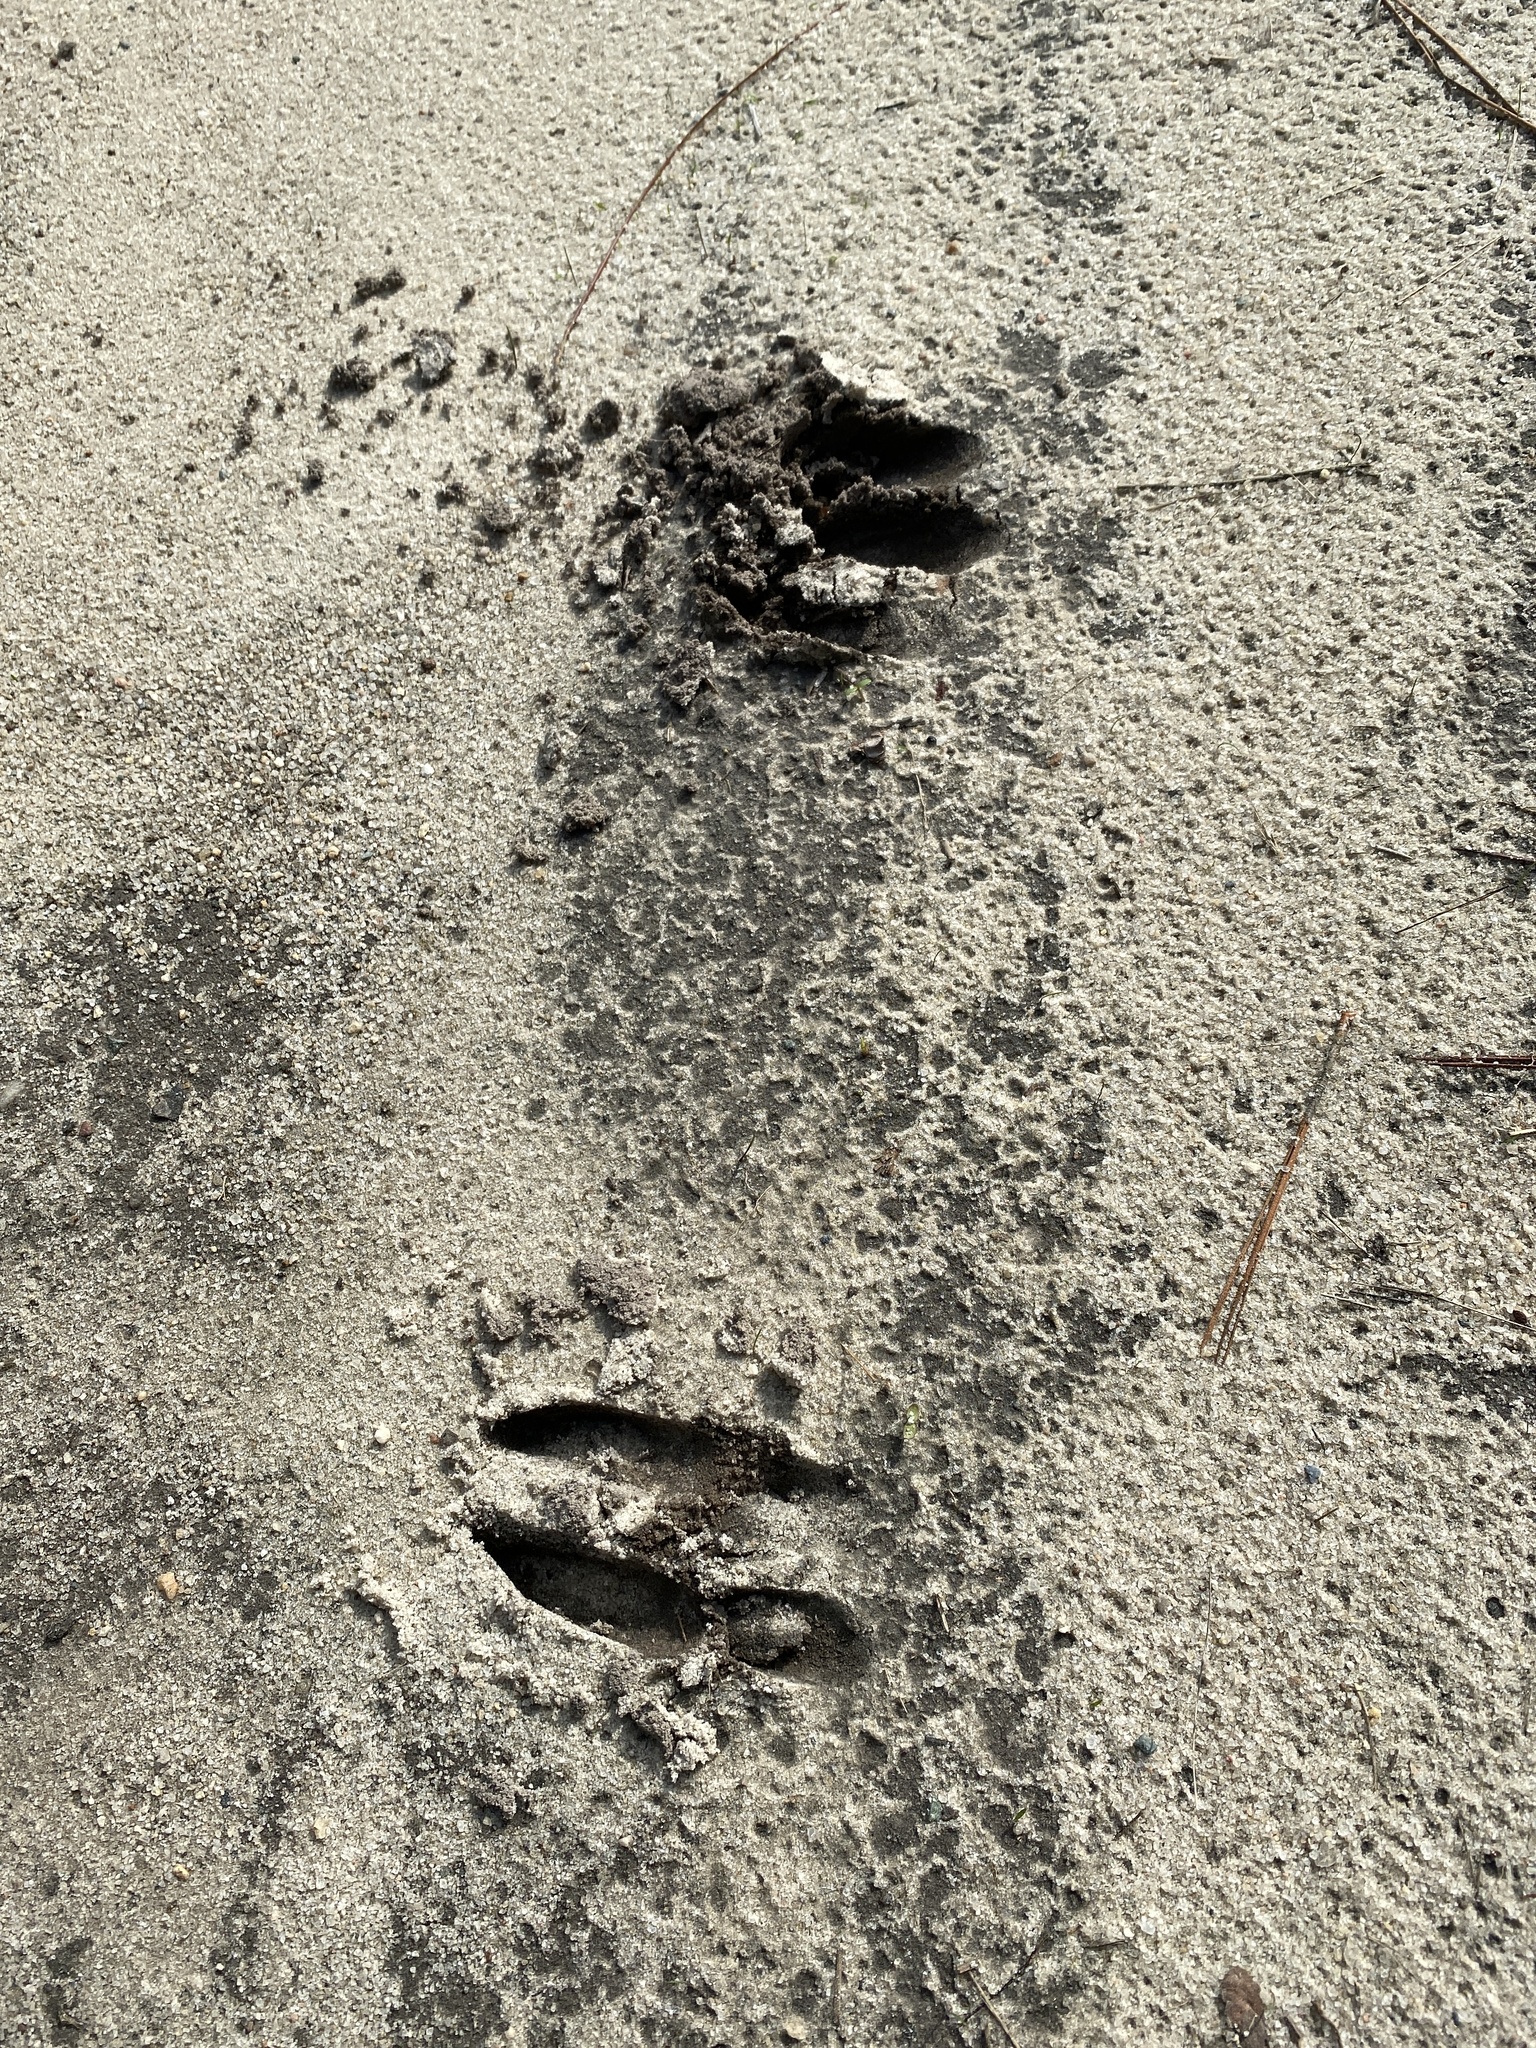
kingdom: Animalia
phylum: Chordata
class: Mammalia
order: Artiodactyla
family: Cervidae
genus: Odocoileus
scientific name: Odocoileus virginianus
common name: White-tailed deer
